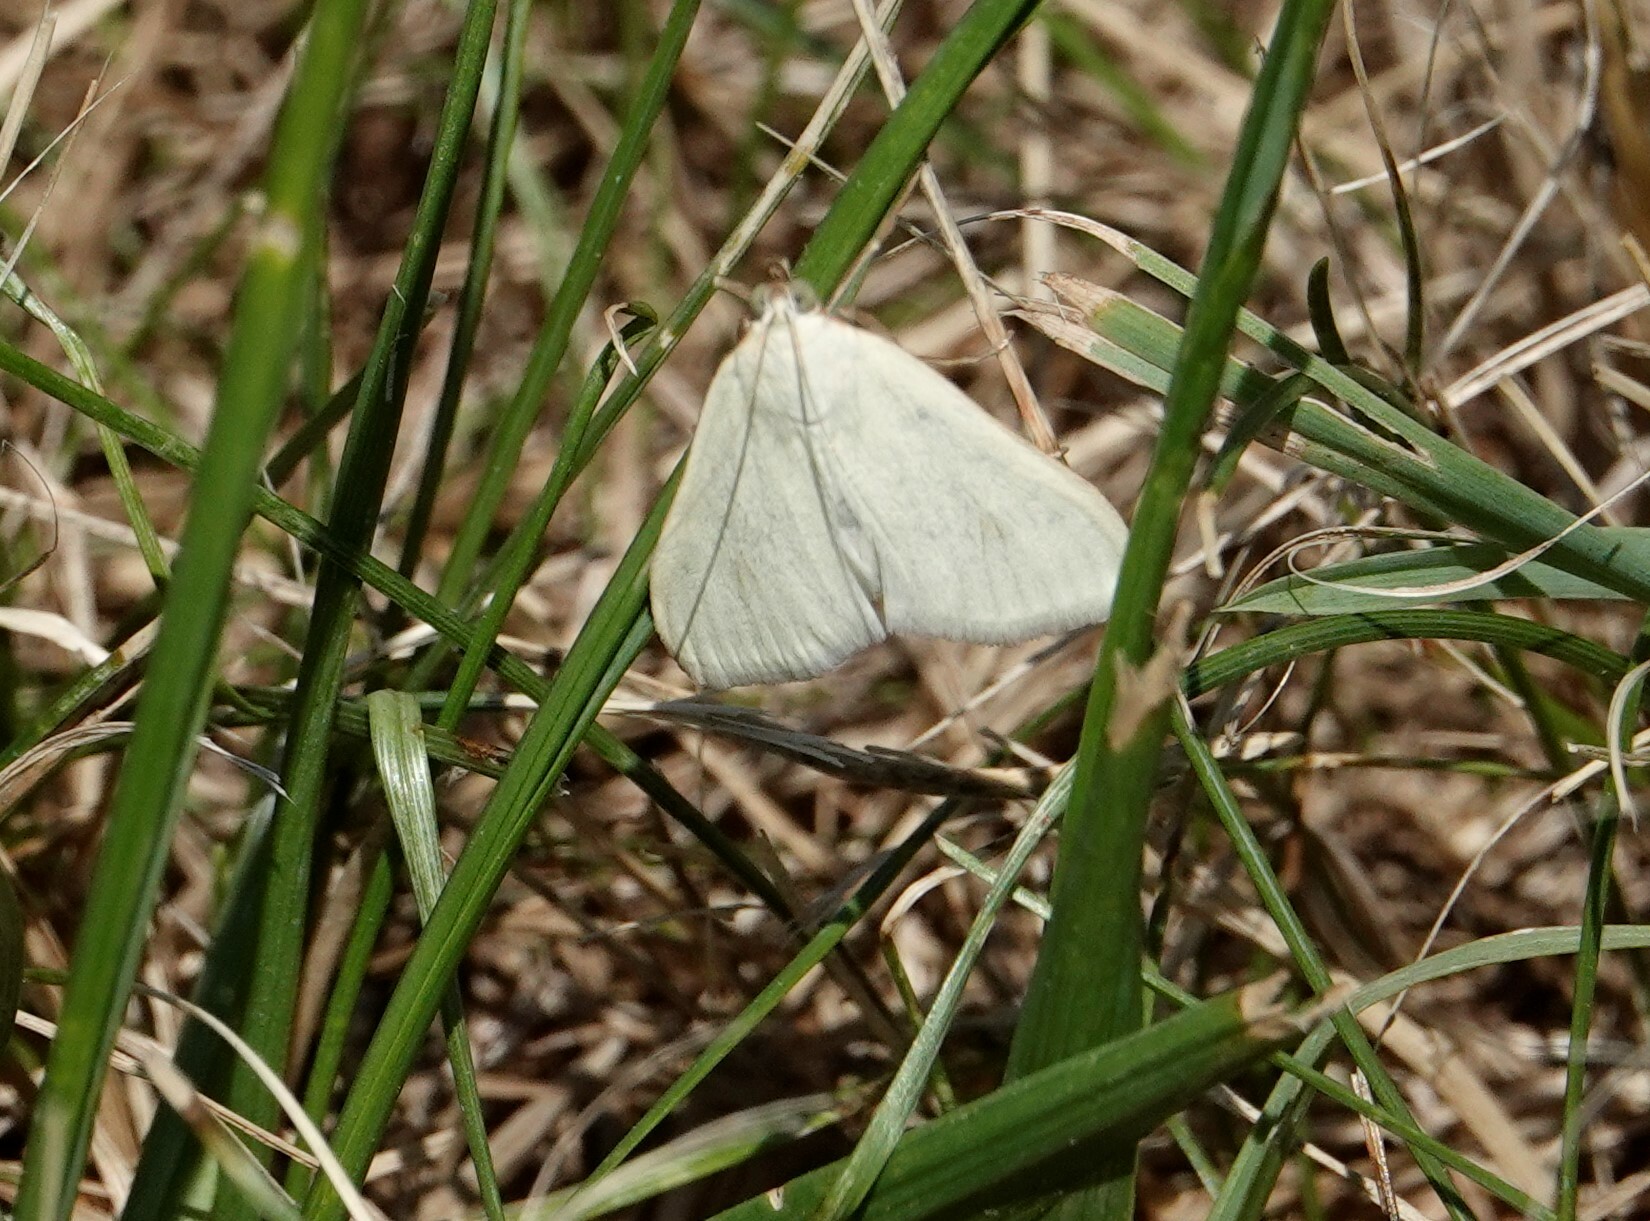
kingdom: Animalia
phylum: Arthropoda
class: Insecta
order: Lepidoptera
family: Crambidae
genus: Sitochroa
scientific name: Sitochroa palealis
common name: Greenish-yellow sitochroa moth
